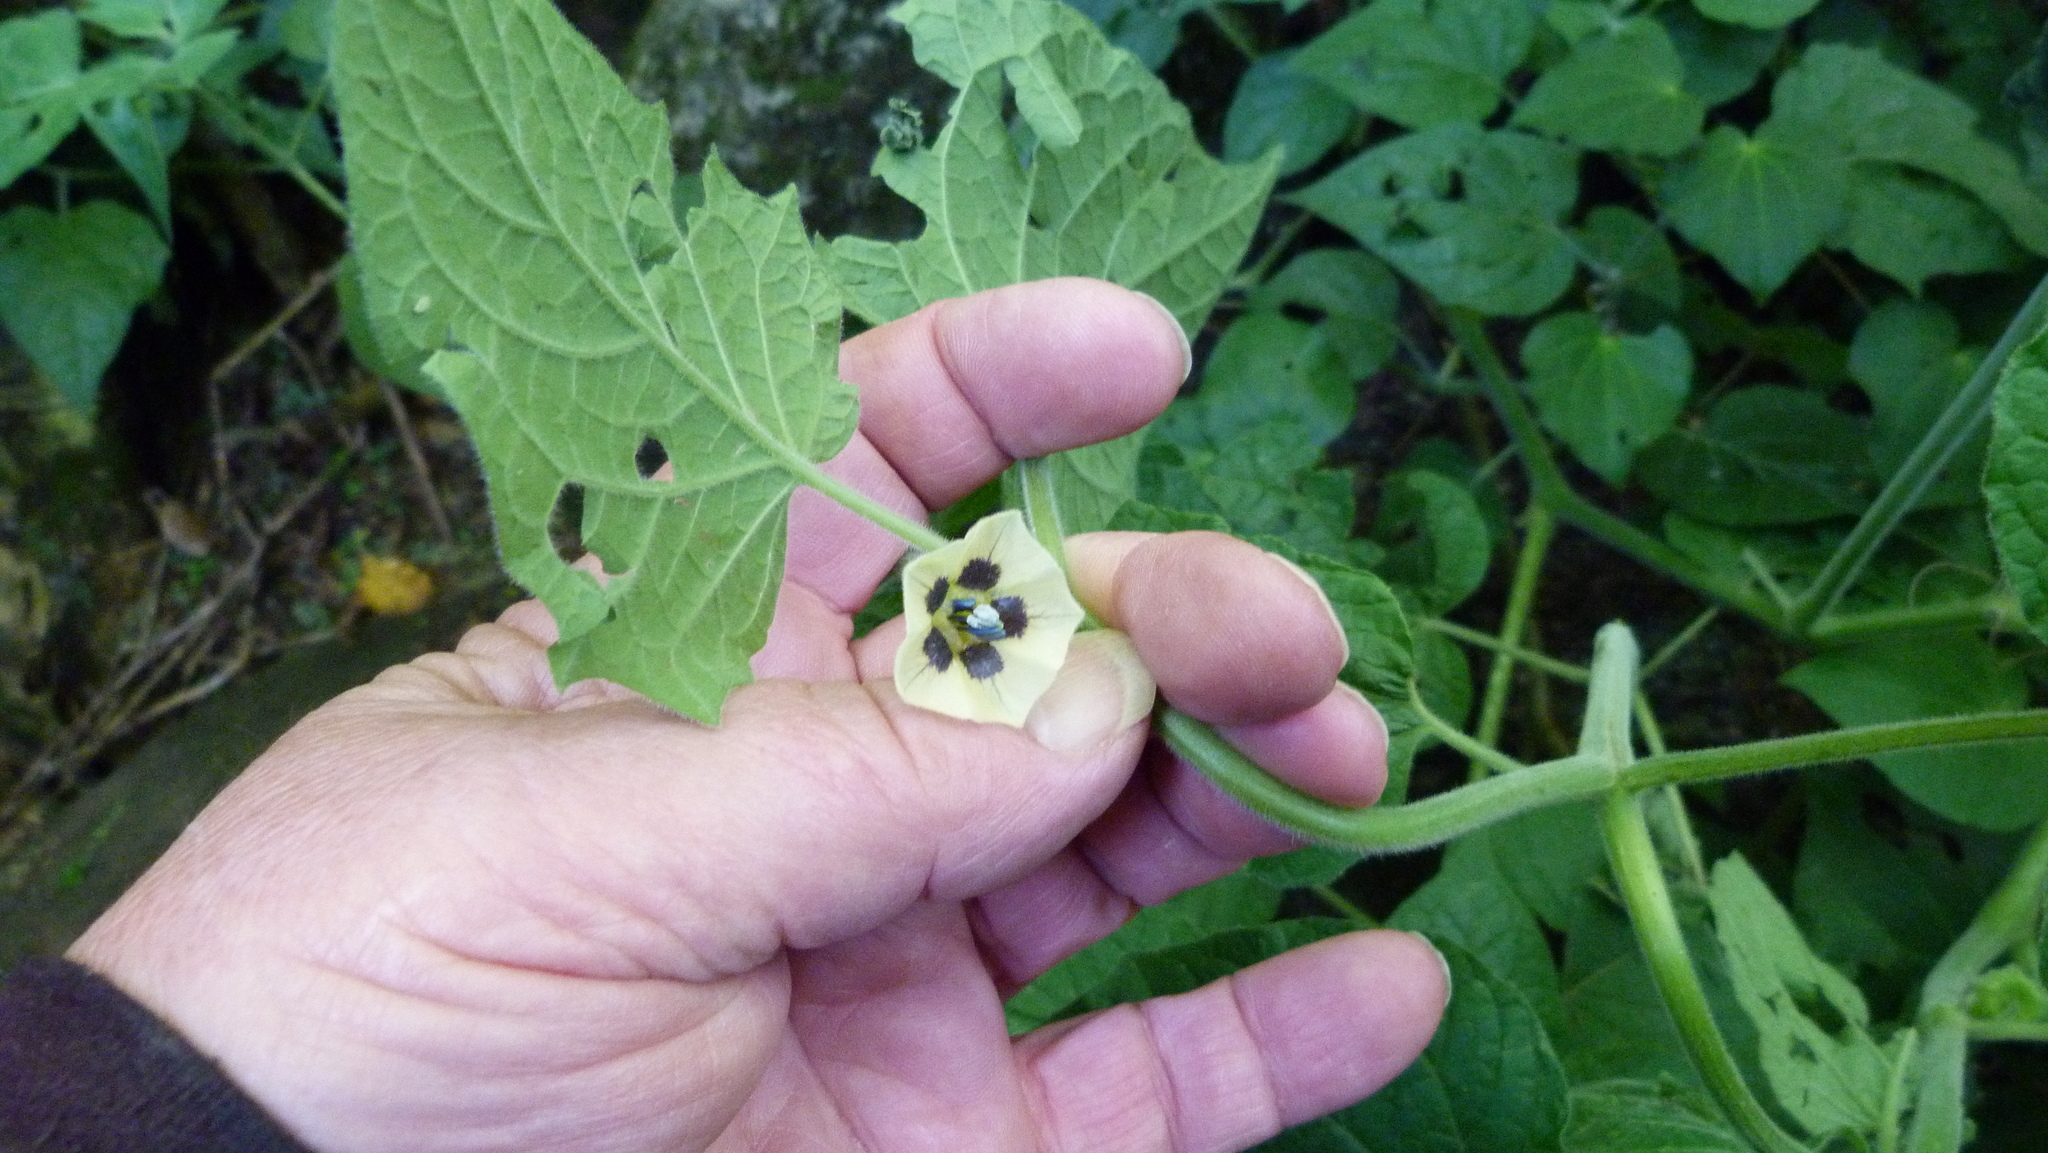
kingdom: Plantae
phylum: Tracheophyta
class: Magnoliopsida
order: Solanales
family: Solanaceae
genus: Physalis
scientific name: Physalis peruviana
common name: Cape-gooseberry
